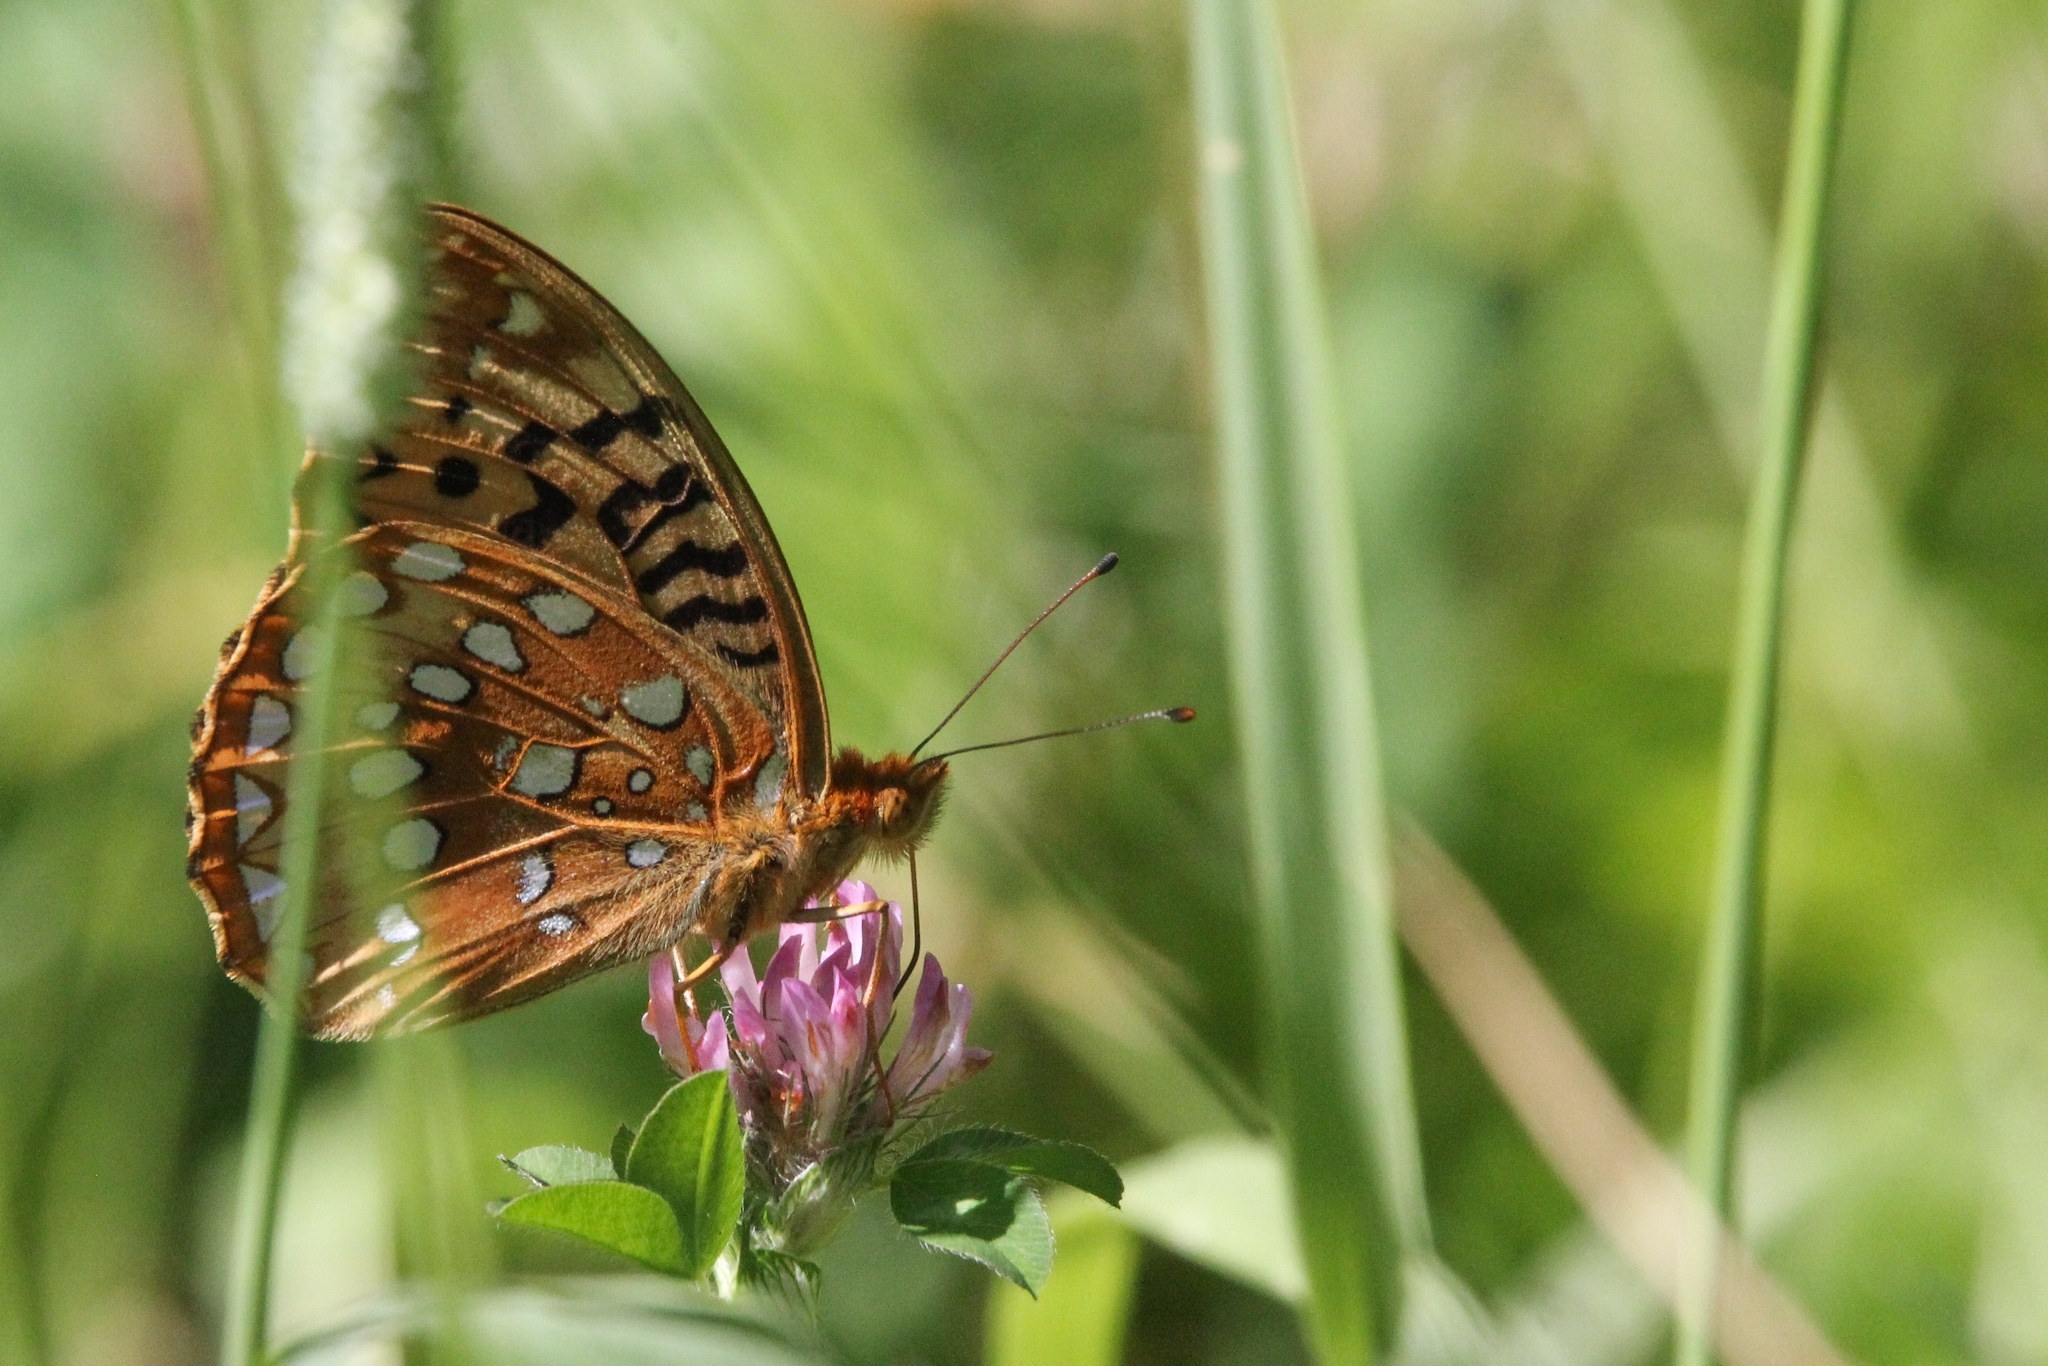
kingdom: Animalia
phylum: Arthropoda
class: Insecta
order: Lepidoptera
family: Nymphalidae
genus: Speyeria
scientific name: Speyeria cybele
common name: Great spangled fritillary
